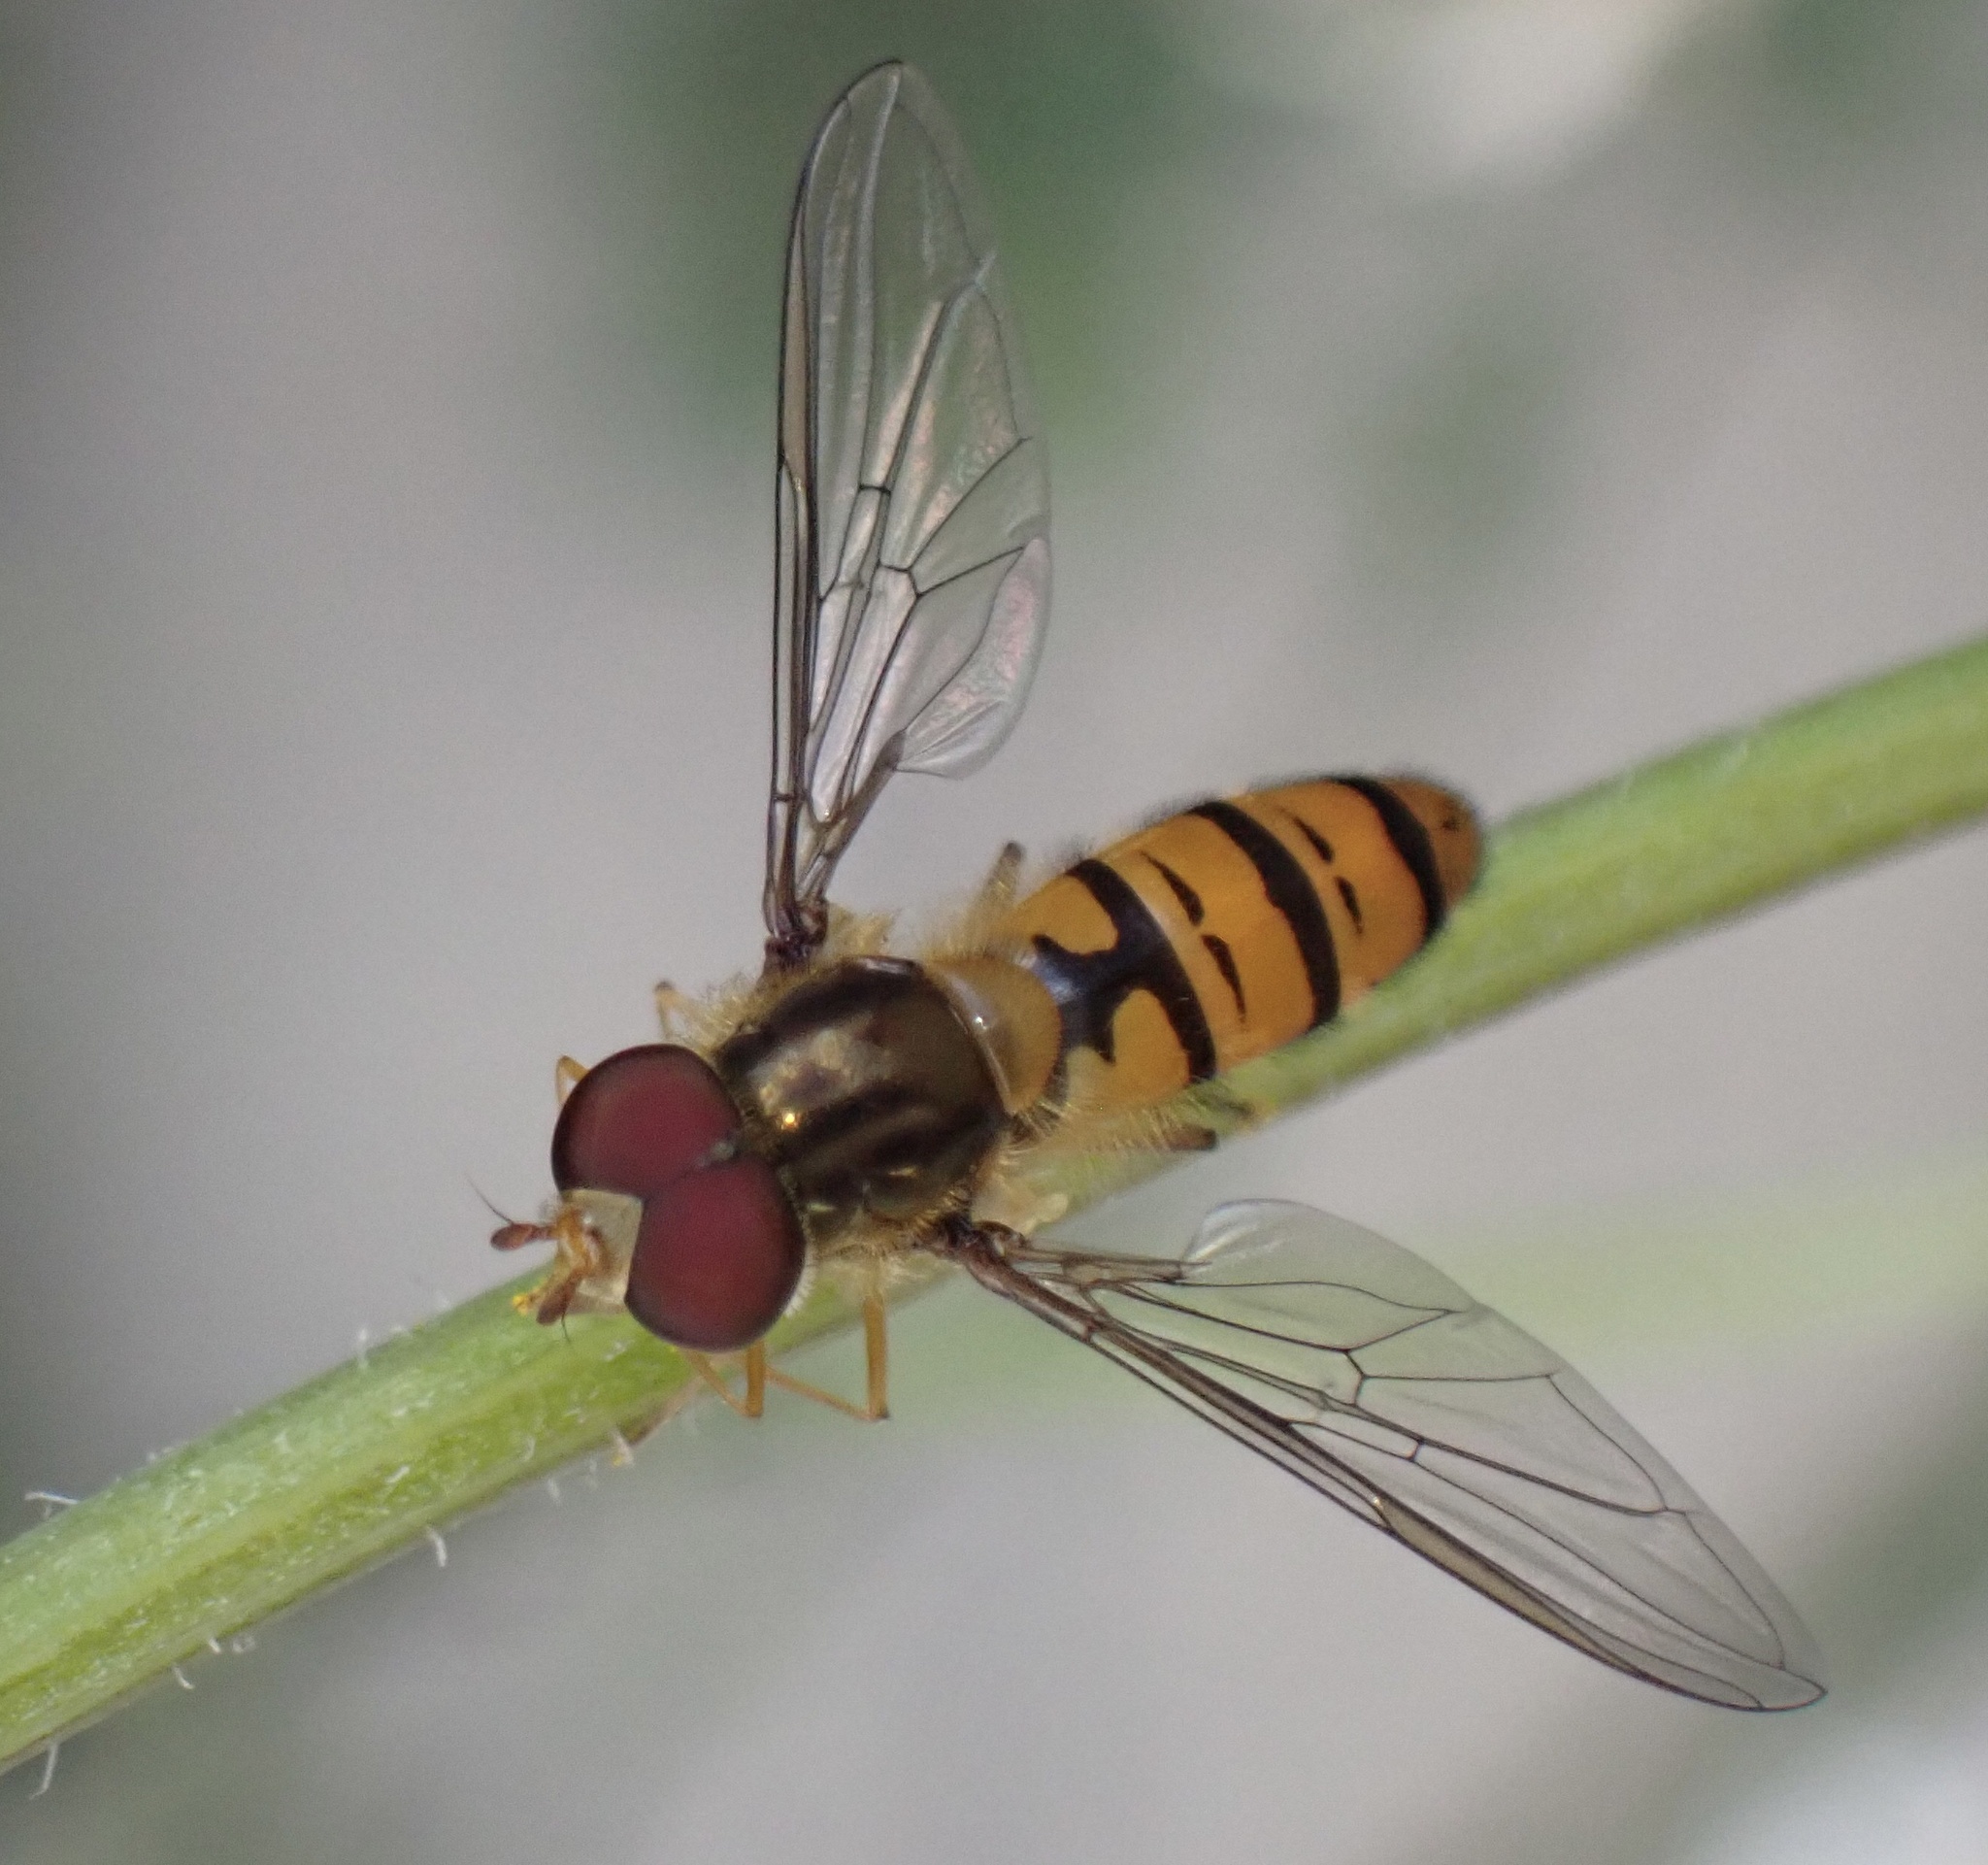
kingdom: Animalia
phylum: Arthropoda
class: Insecta
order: Diptera
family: Syrphidae
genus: Episyrphus
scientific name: Episyrphus balteatus
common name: Marmalade hoverfly
